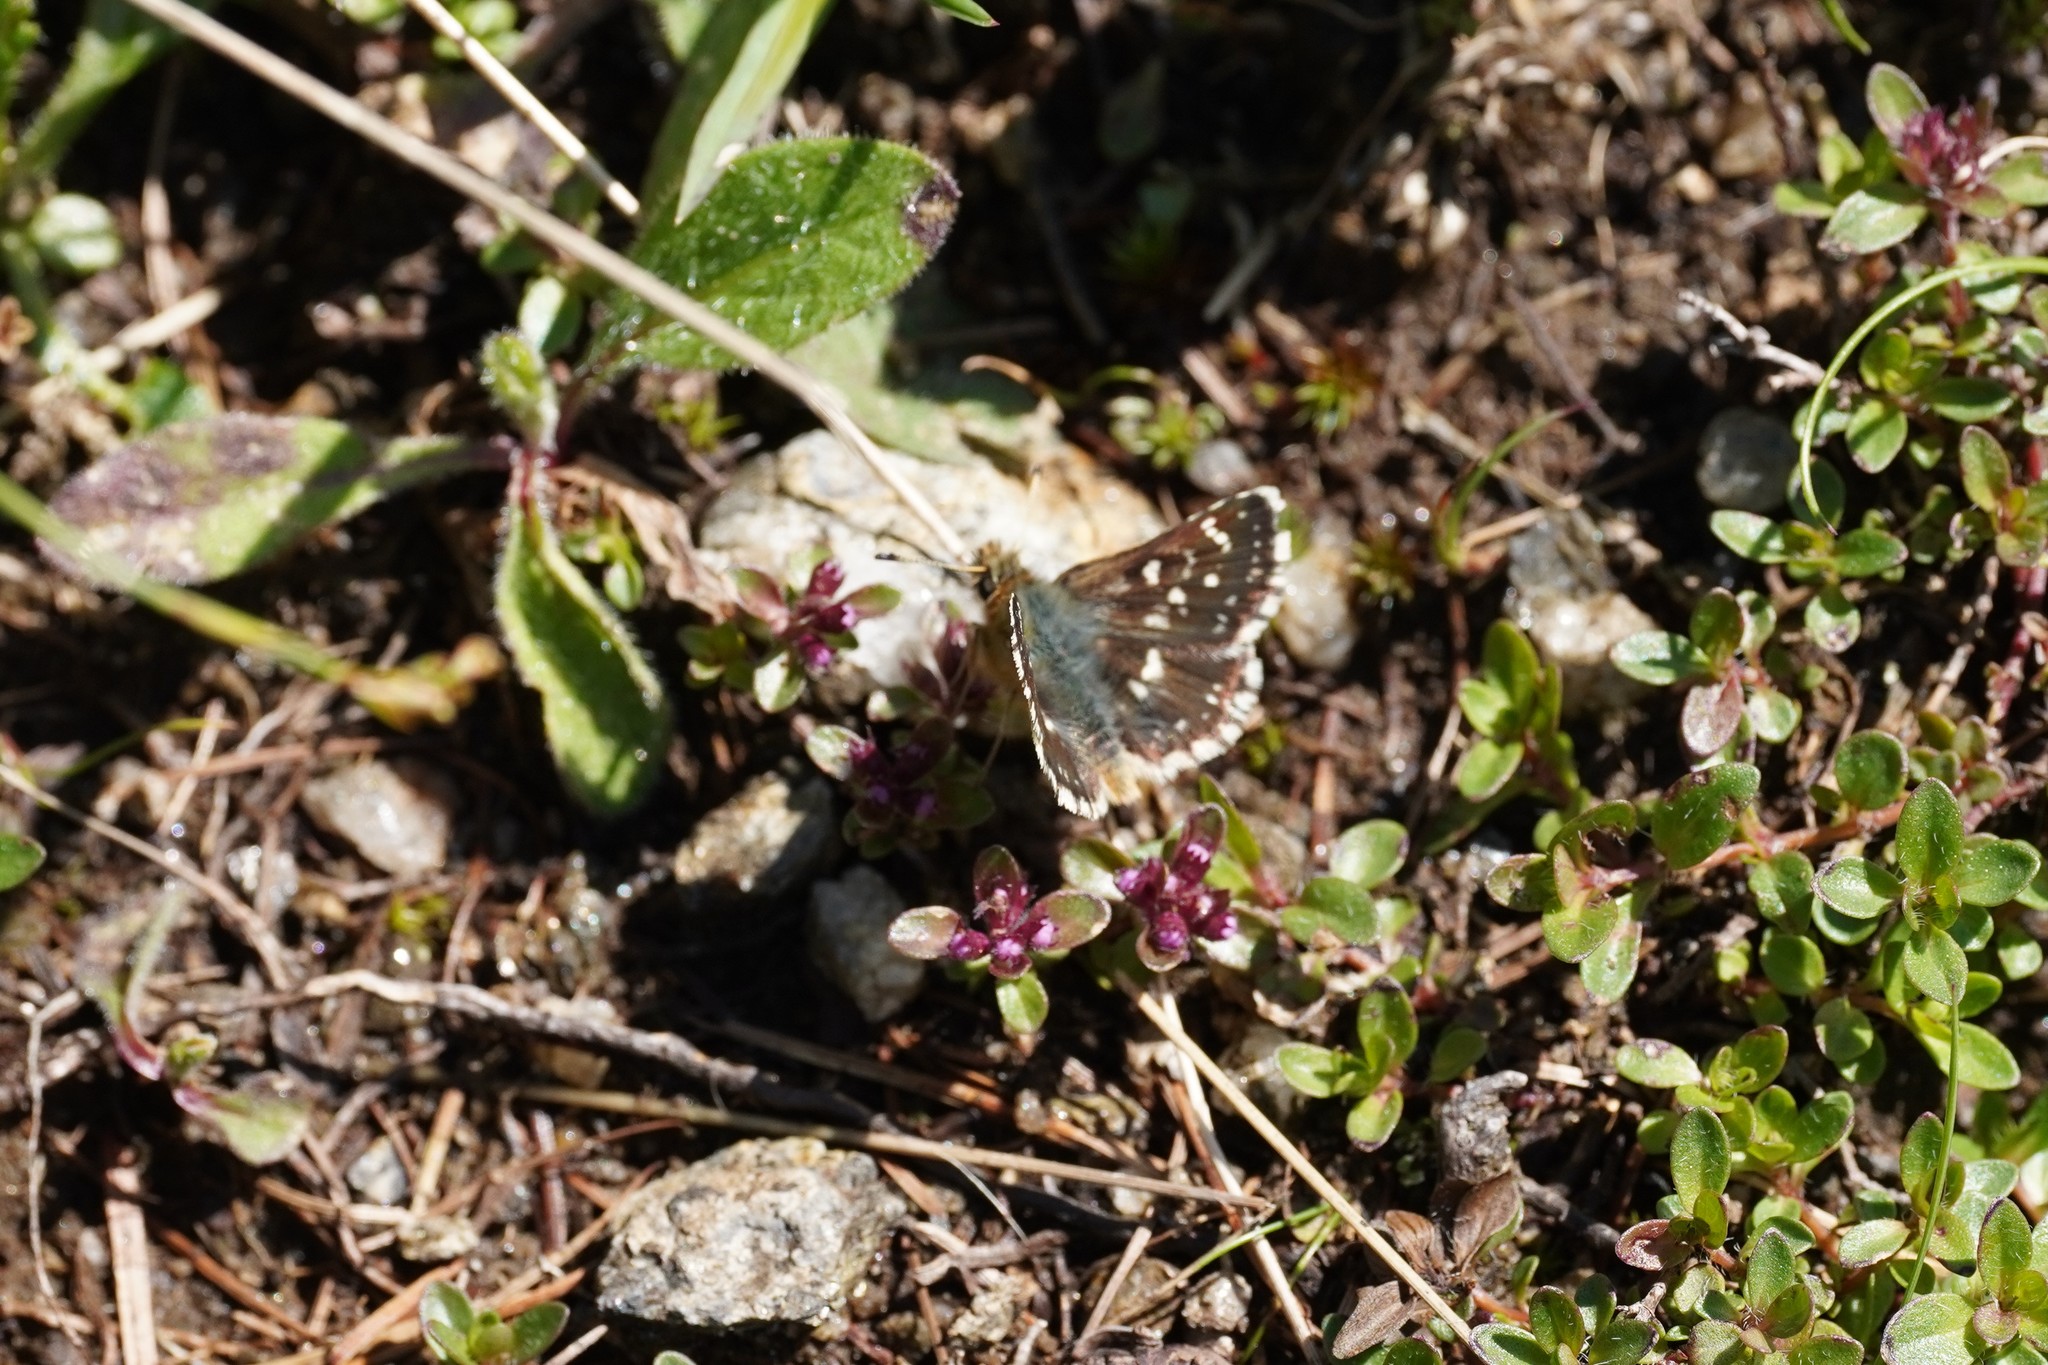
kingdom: Animalia
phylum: Arthropoda
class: Insecta
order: Lepidoptera
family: Hesperiidae
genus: Spialia
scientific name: Spialia sertorius
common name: Red underwing skipper
